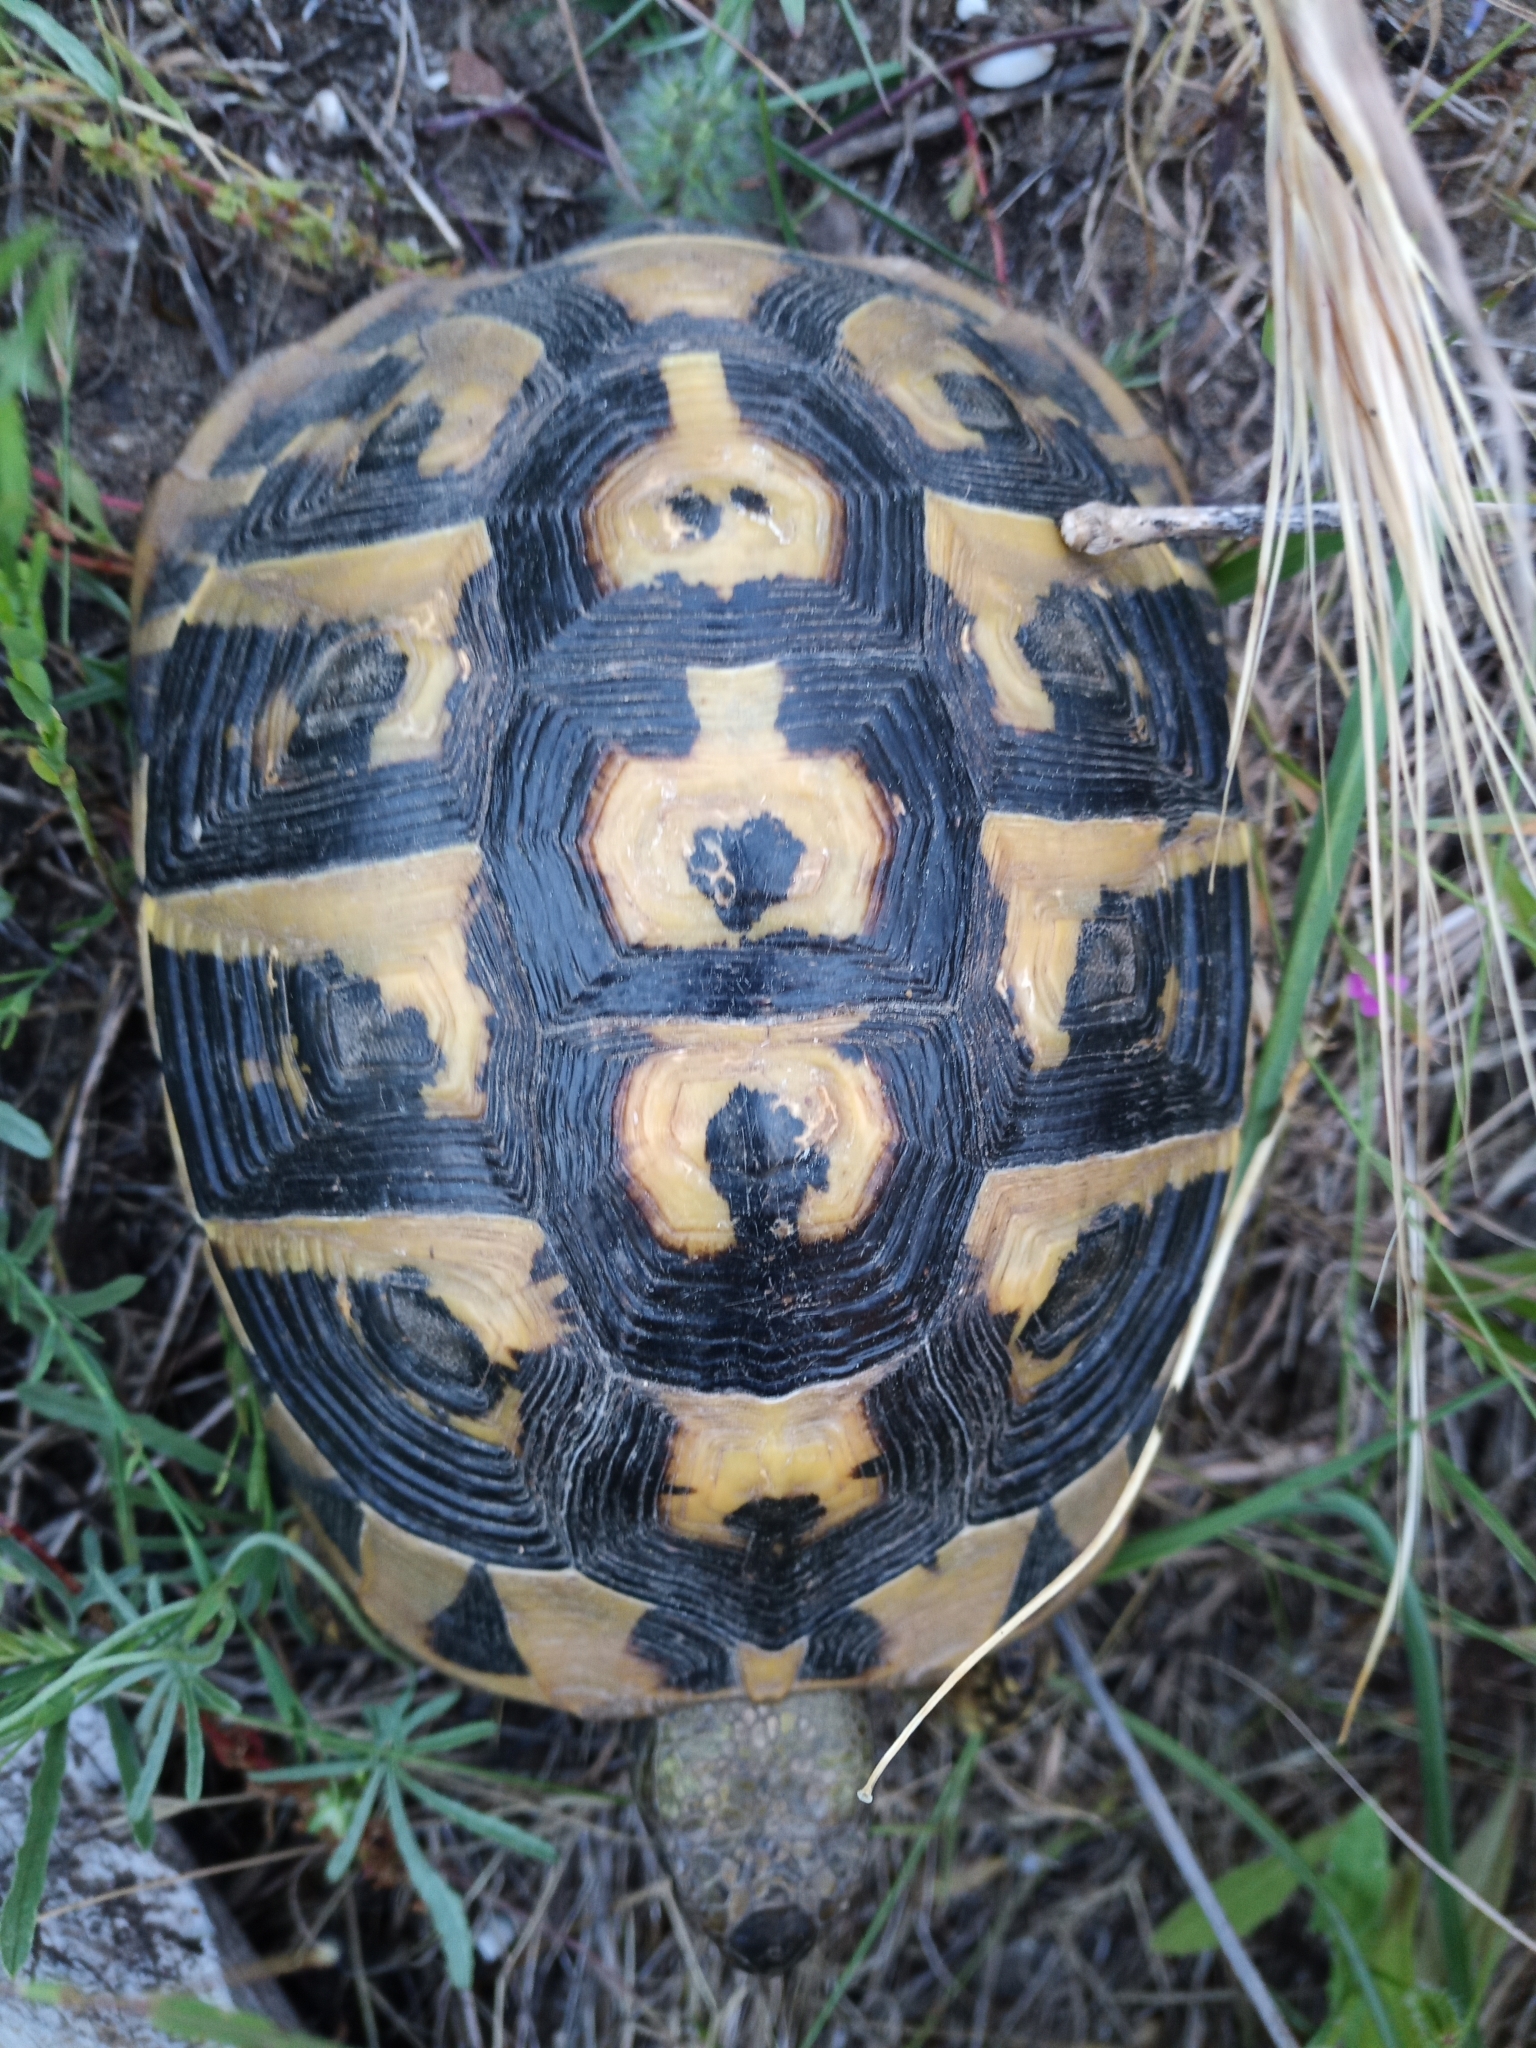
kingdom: Animalia
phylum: Chordata
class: Testudines
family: Testudinidae
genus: Testudo
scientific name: Testudo hermanni
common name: Hermann's tortoise
